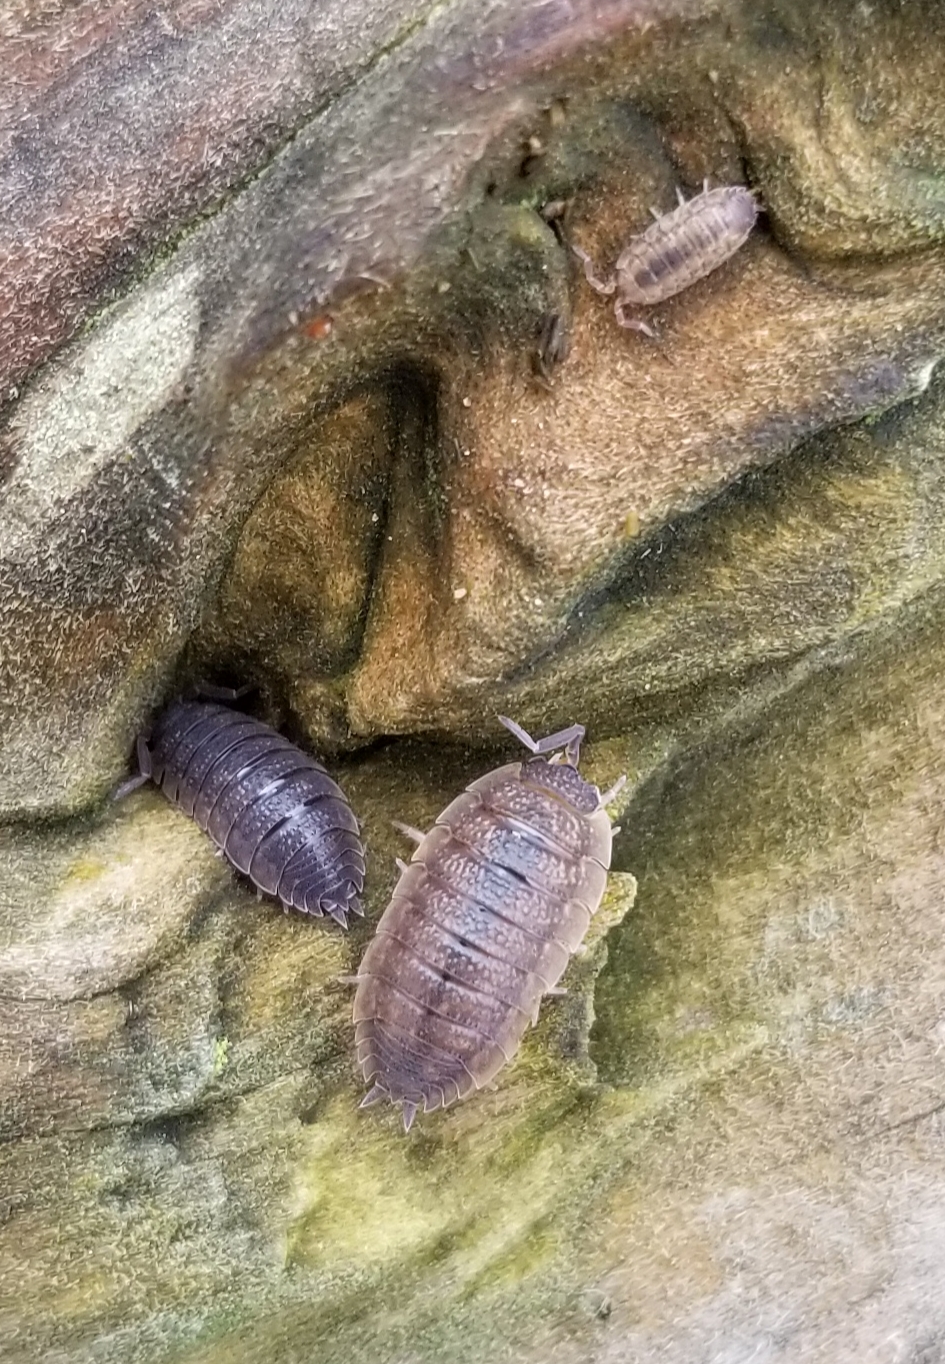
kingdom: Animalia
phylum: Arthropoda
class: Malacostraca
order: Isopoda
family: Porcellionidae
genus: Porcellio
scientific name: Porcellio scaber
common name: Common rough woodlouse
